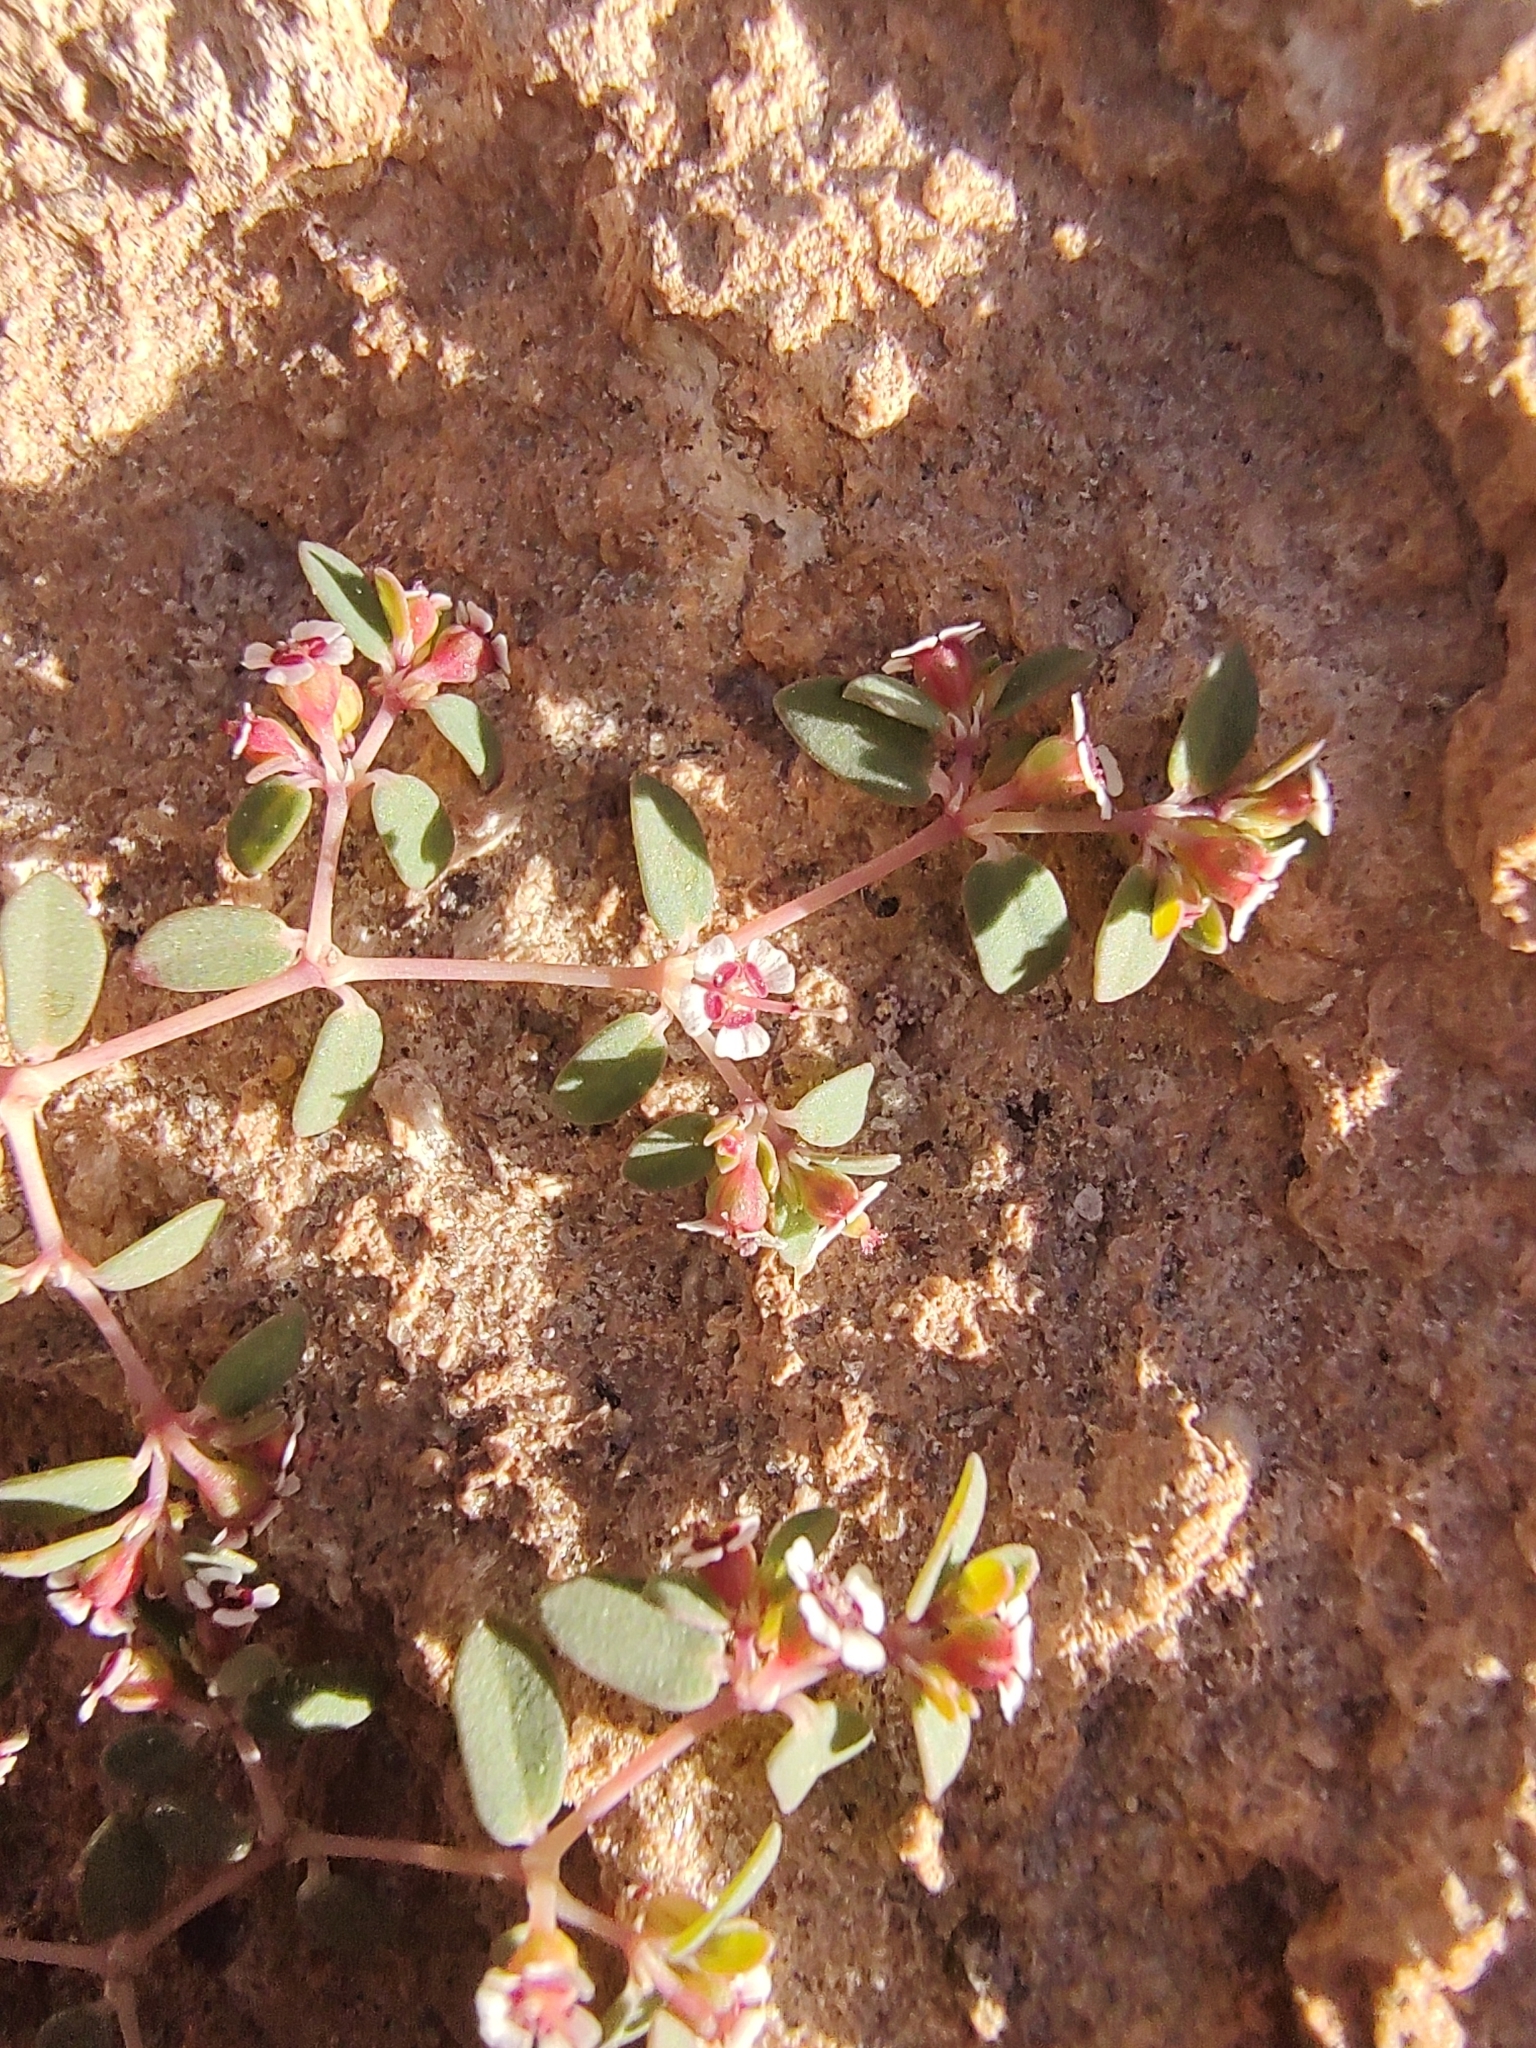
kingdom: Plantae
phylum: Tracheophyta
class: Magnoliopsida
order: Malpighiales
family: Euphorbiaceae
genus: Euphorbia
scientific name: Euphorbia polycarpa
